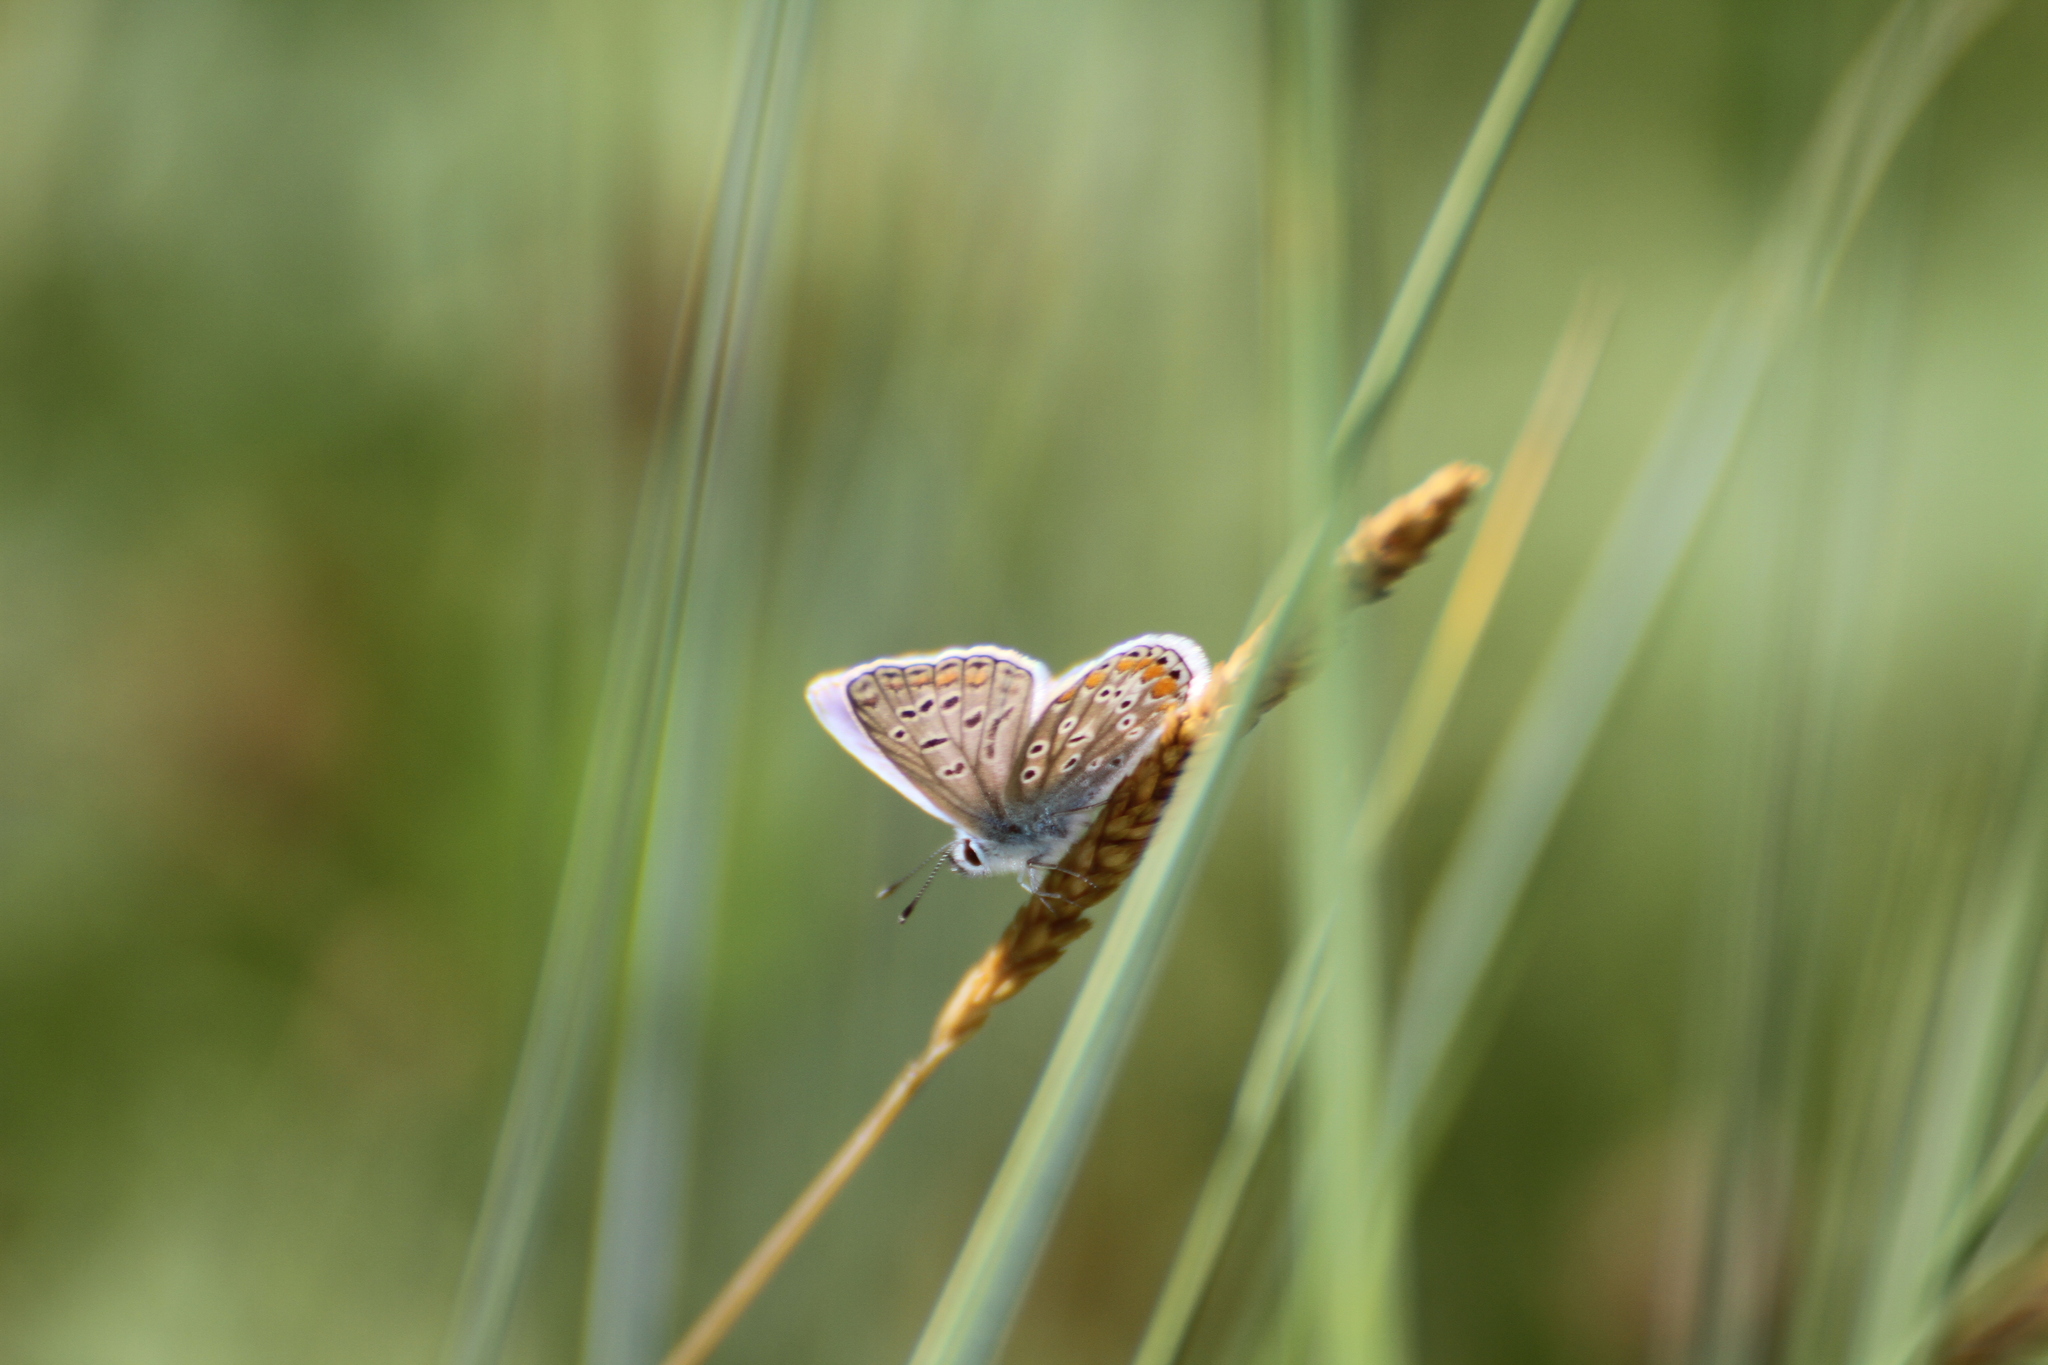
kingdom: Animalia
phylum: Arthropoda
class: Insecta
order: Lepidoptera
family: Lycaenidae
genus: Polyommatus
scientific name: Polyommatus icarus
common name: Common blue
